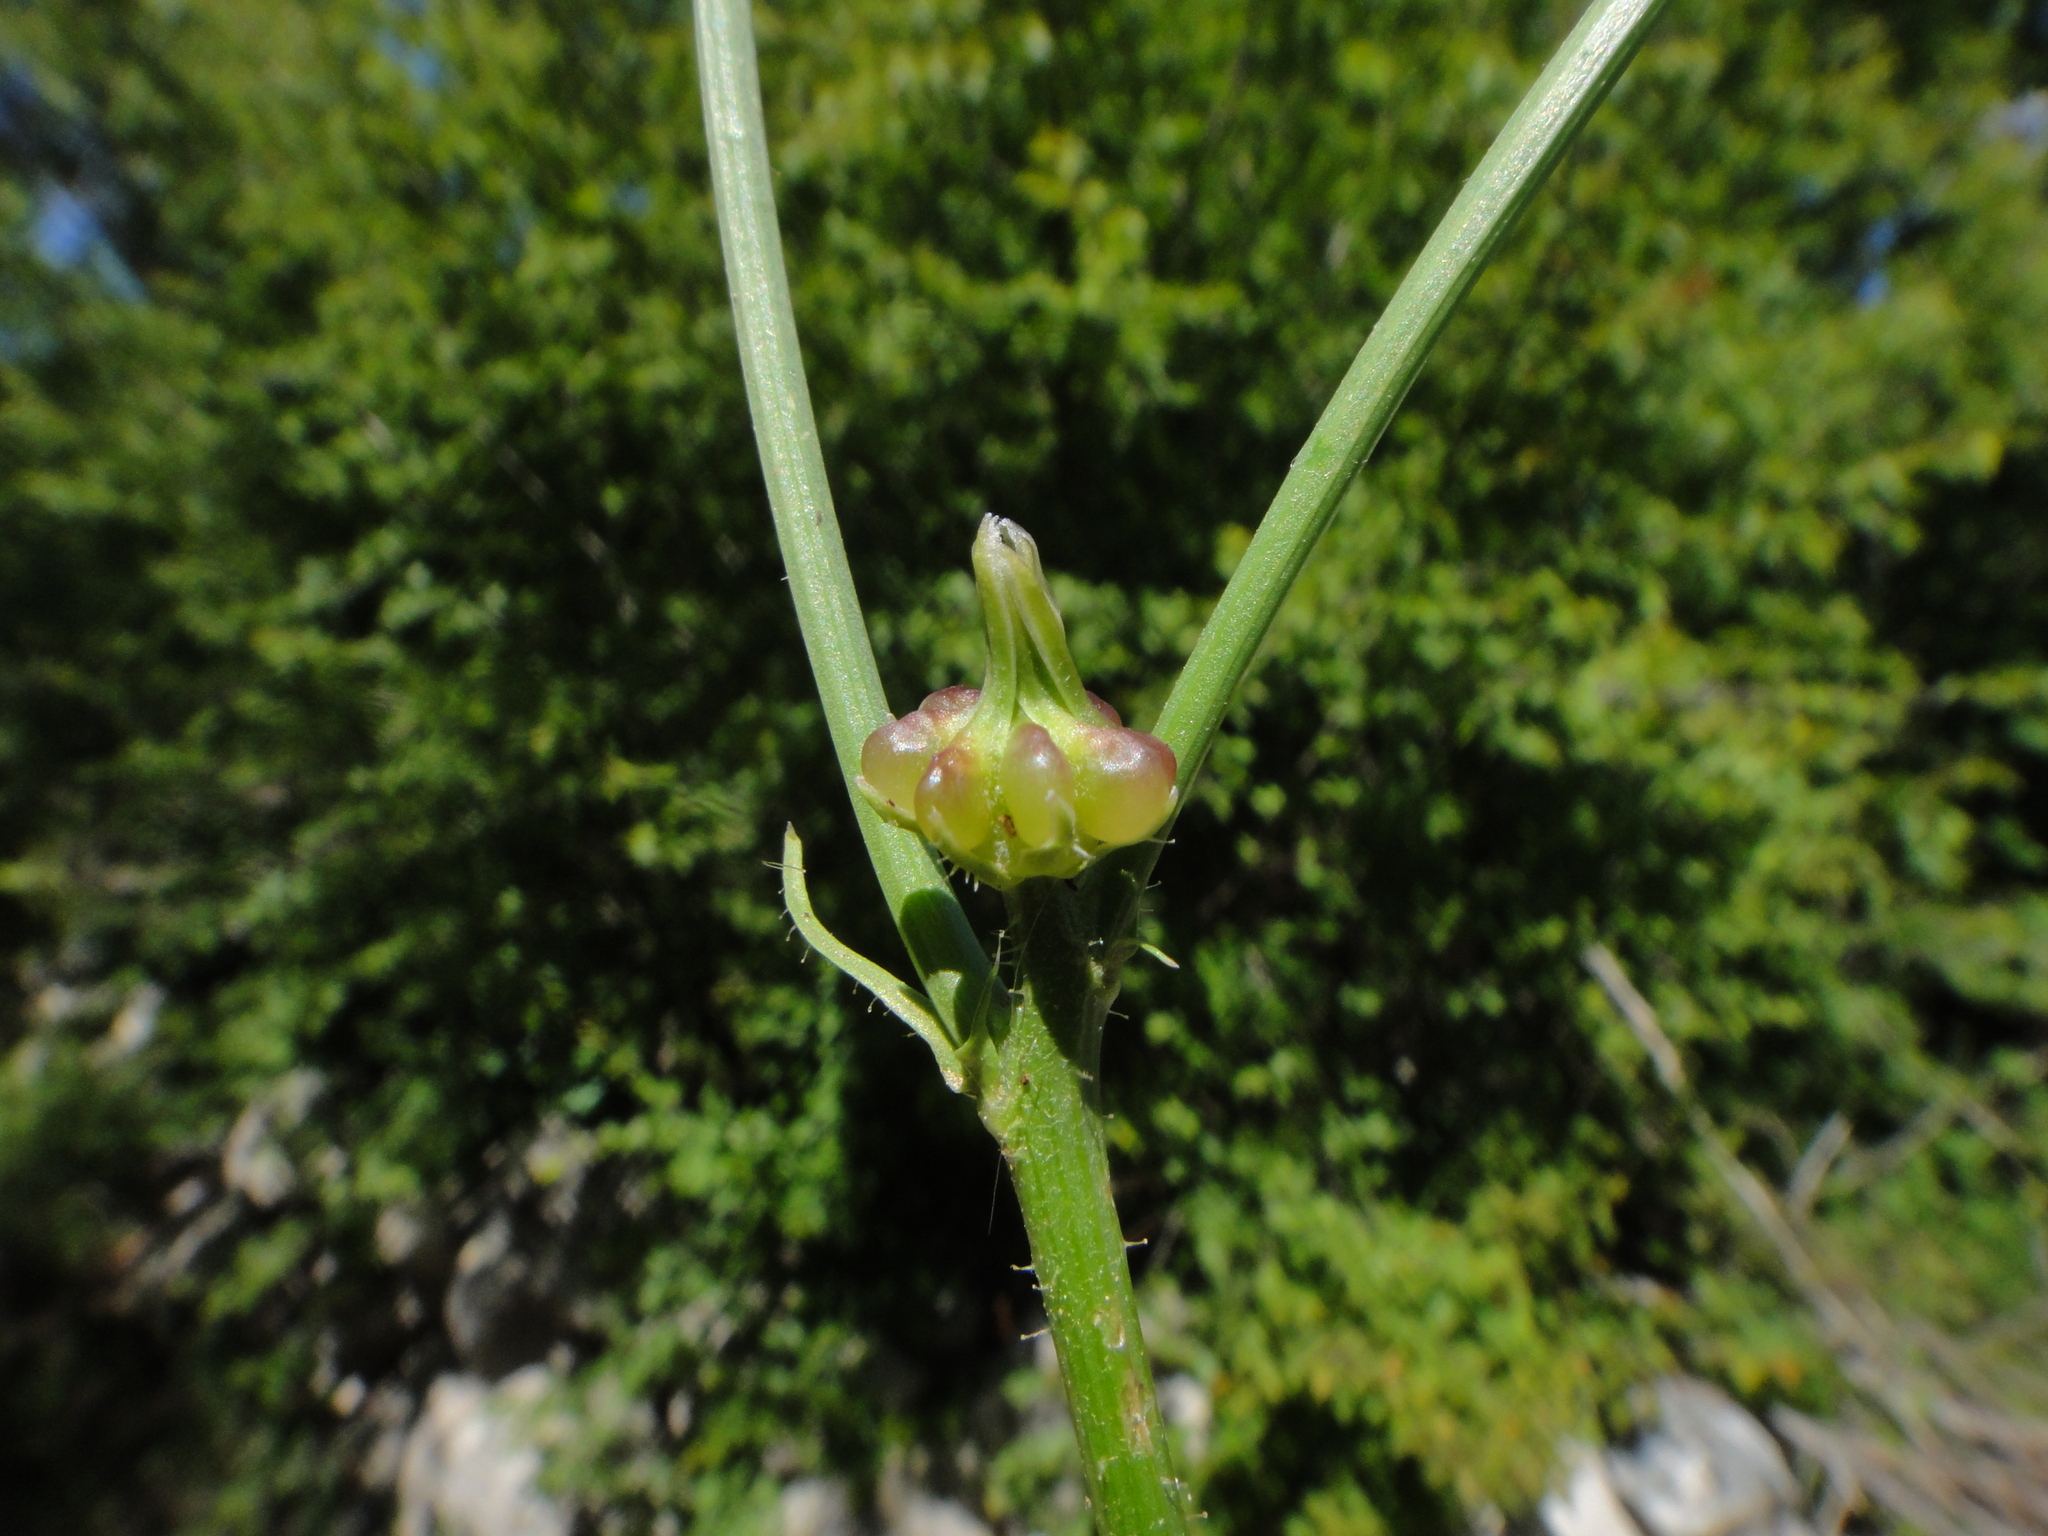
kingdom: Plantae
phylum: Tracheophyta
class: Magnoliopsida
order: Asterales
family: Asteraceae
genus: Crepis
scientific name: Crepis zacintha
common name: Striped hawksbeard
